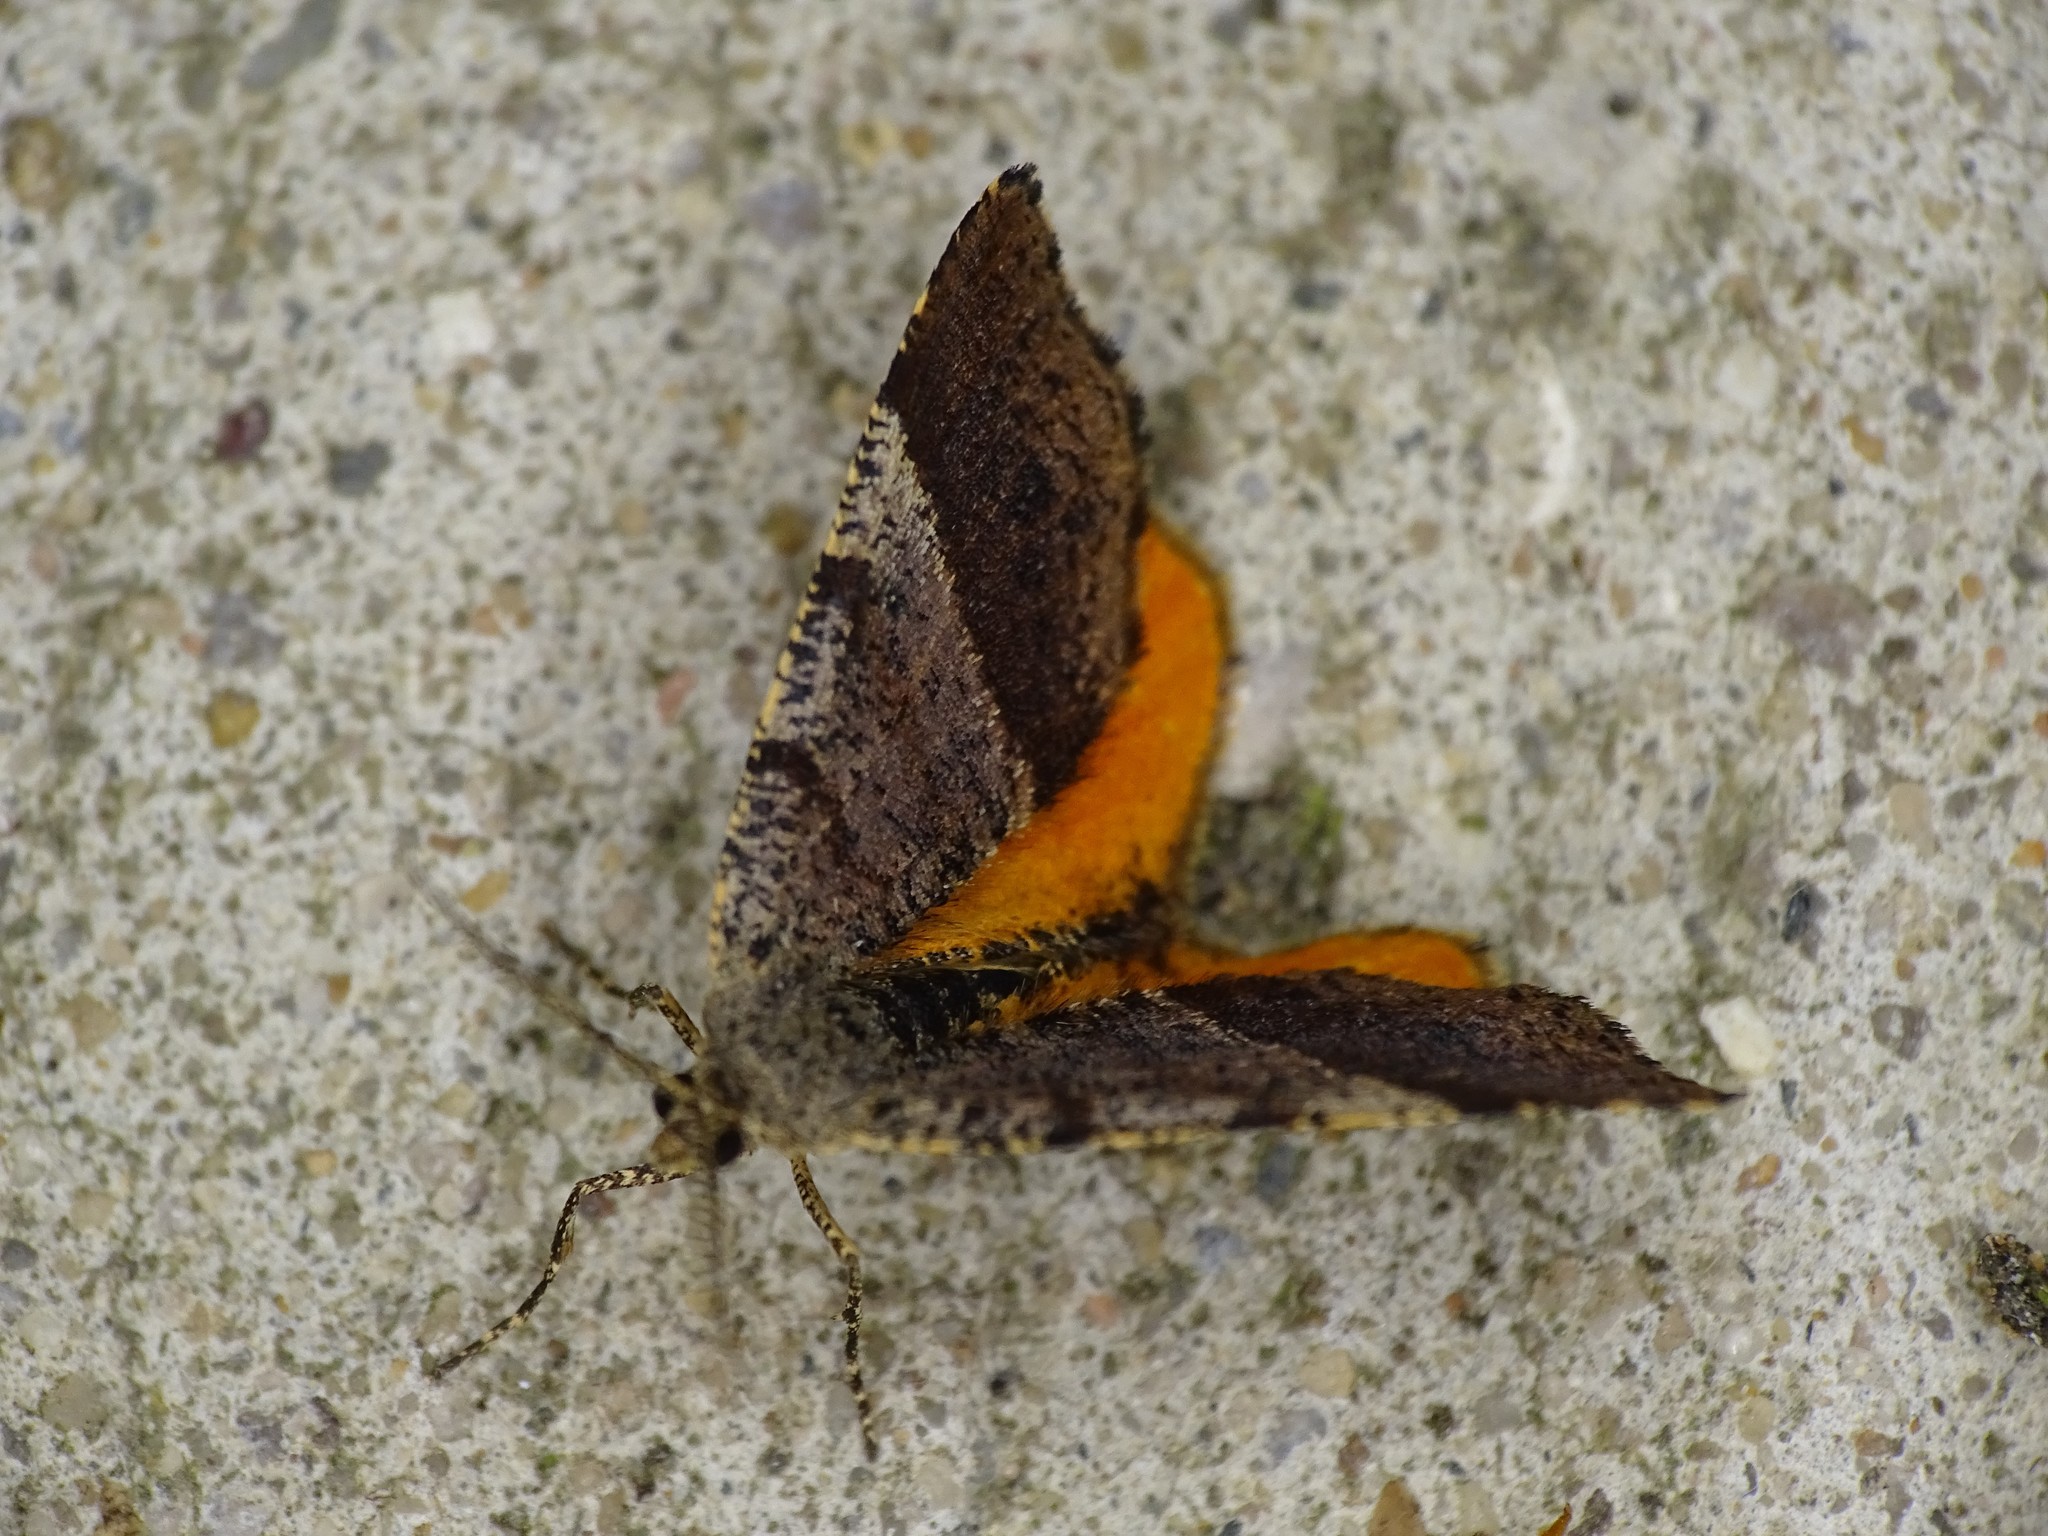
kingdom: Animalia
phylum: Arthropoda
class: Insecta
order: Lepidoptera
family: Geometridae
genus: Mellilla
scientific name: Mellilla xanthometata
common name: Orange wing moth
